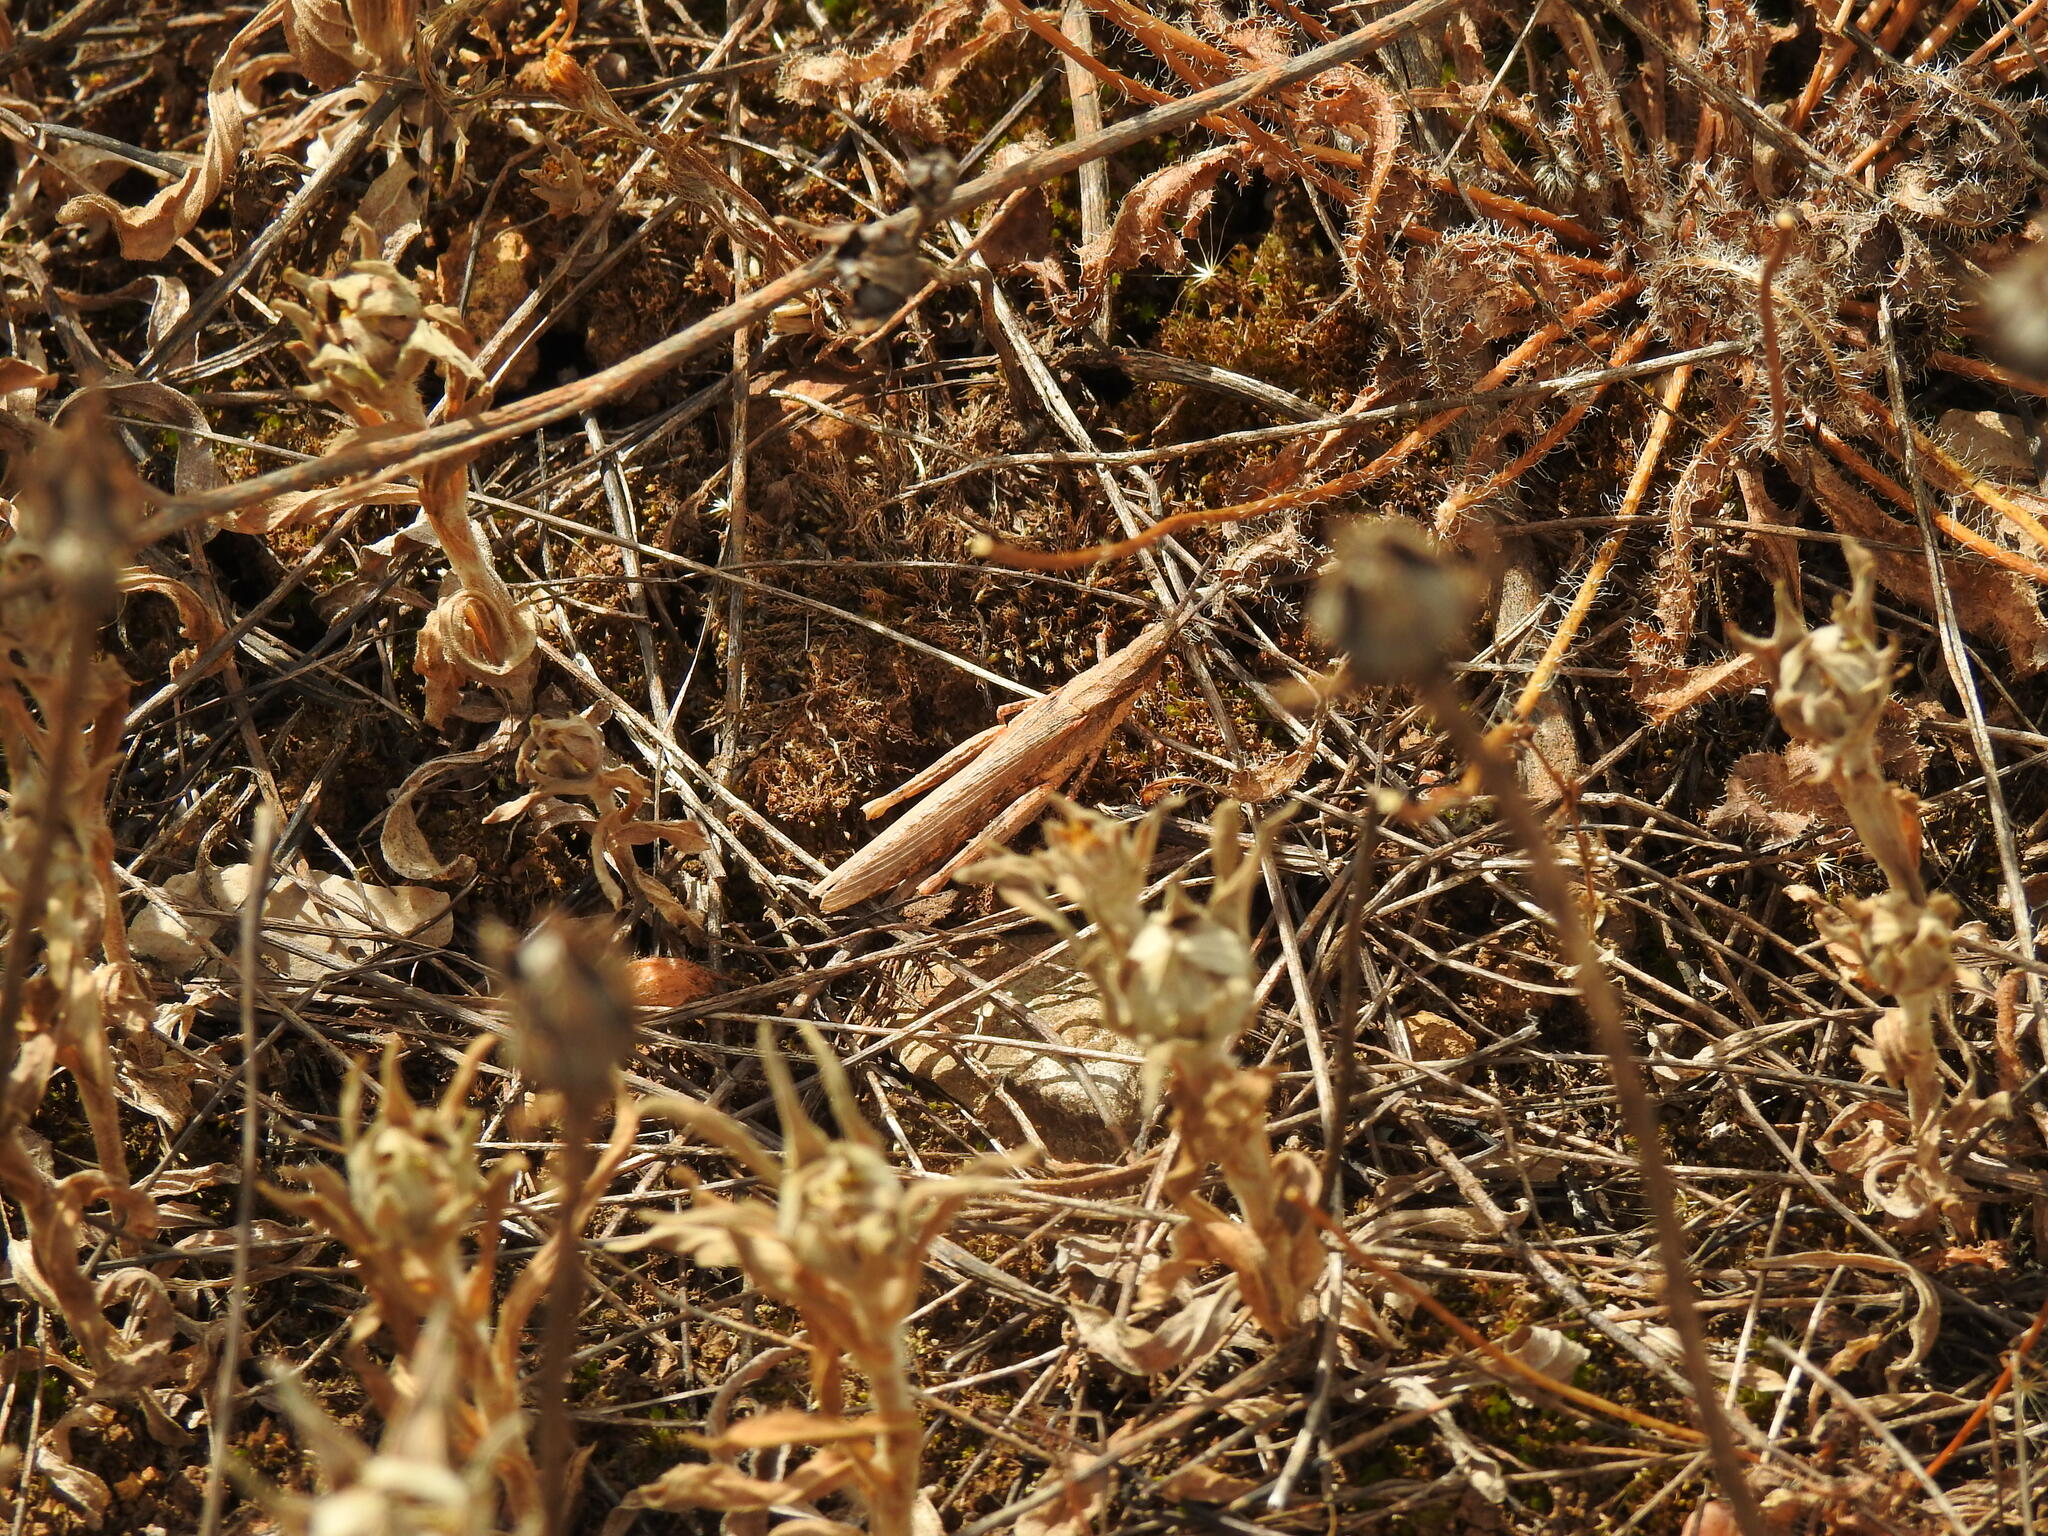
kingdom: Animalia
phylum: Arthropoda
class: Insecta
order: Orthoptera
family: Pyrgomorphidae
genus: Pyrgomorpha
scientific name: Pyrgomorpha conica
